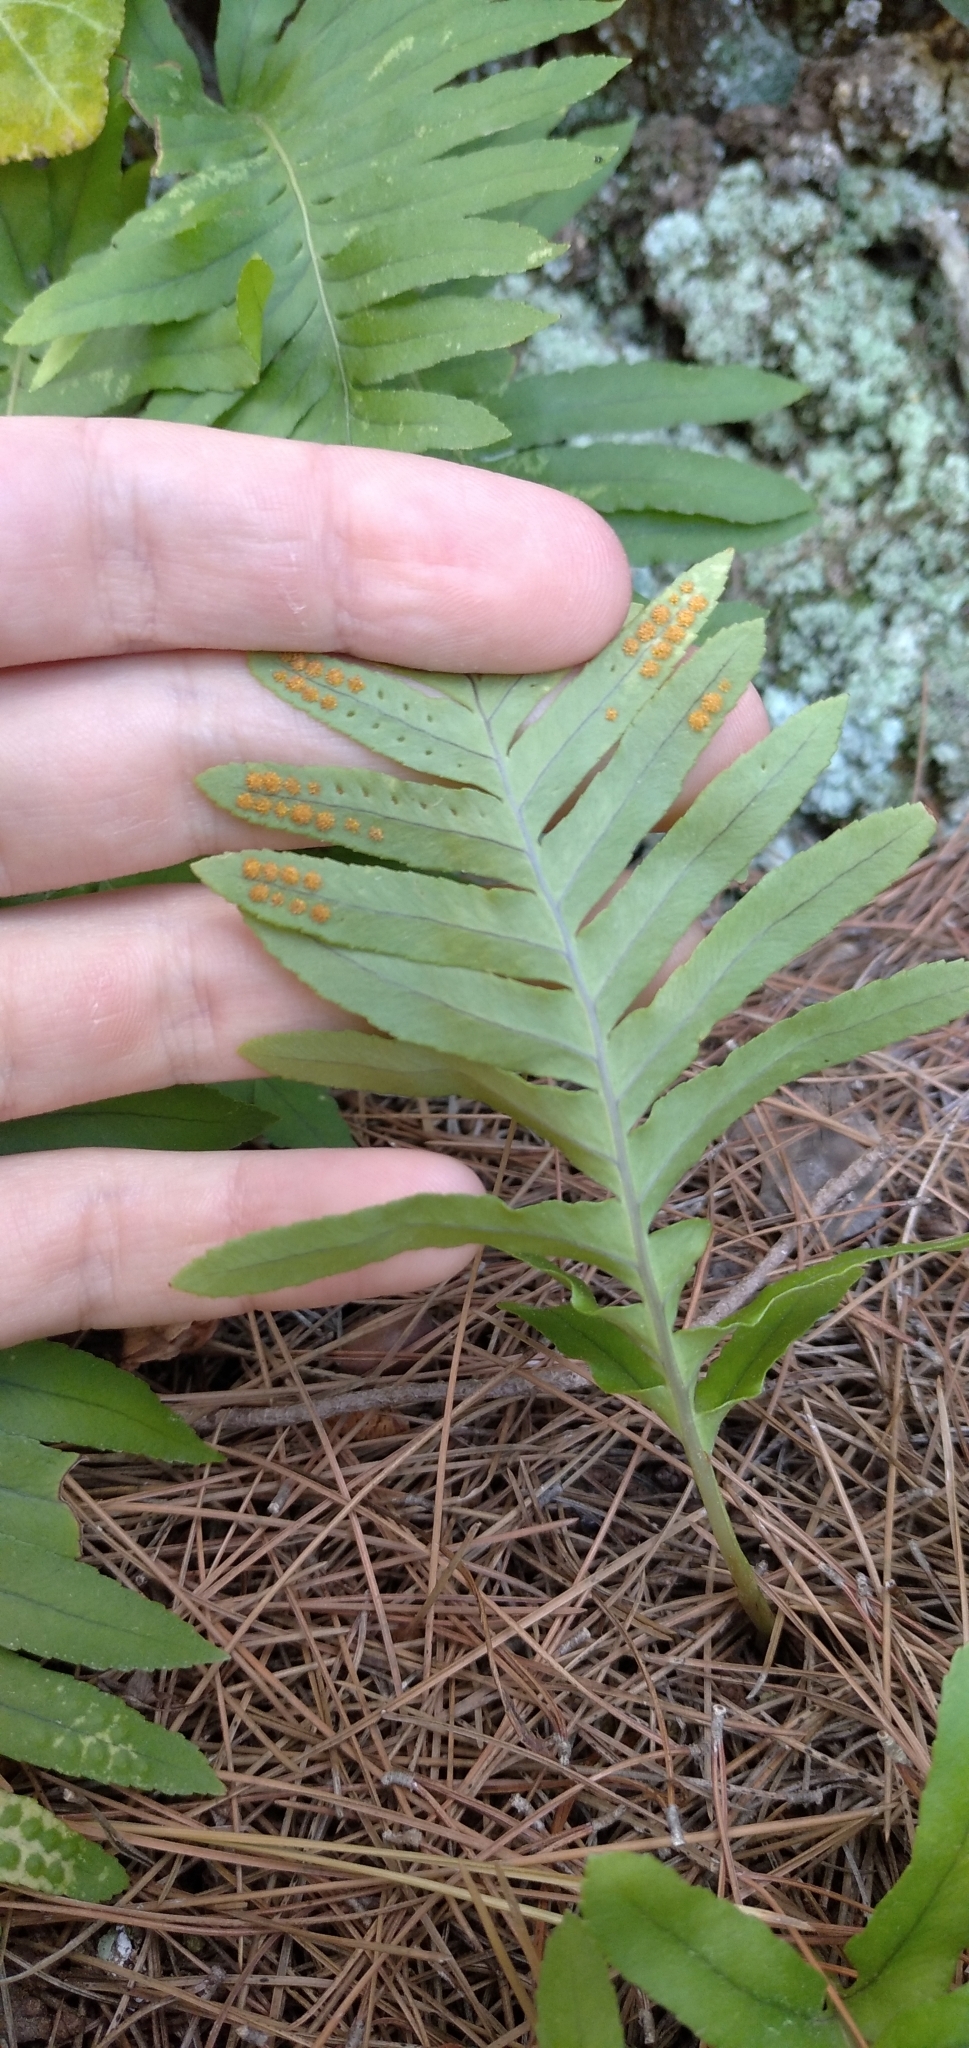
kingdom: Plantae
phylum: Tracheophyta
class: Polypodiopsida
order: Polypodiales
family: Polypodiaceae
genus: Polypodium
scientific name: Polypodium cambricum
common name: Southern polypody
